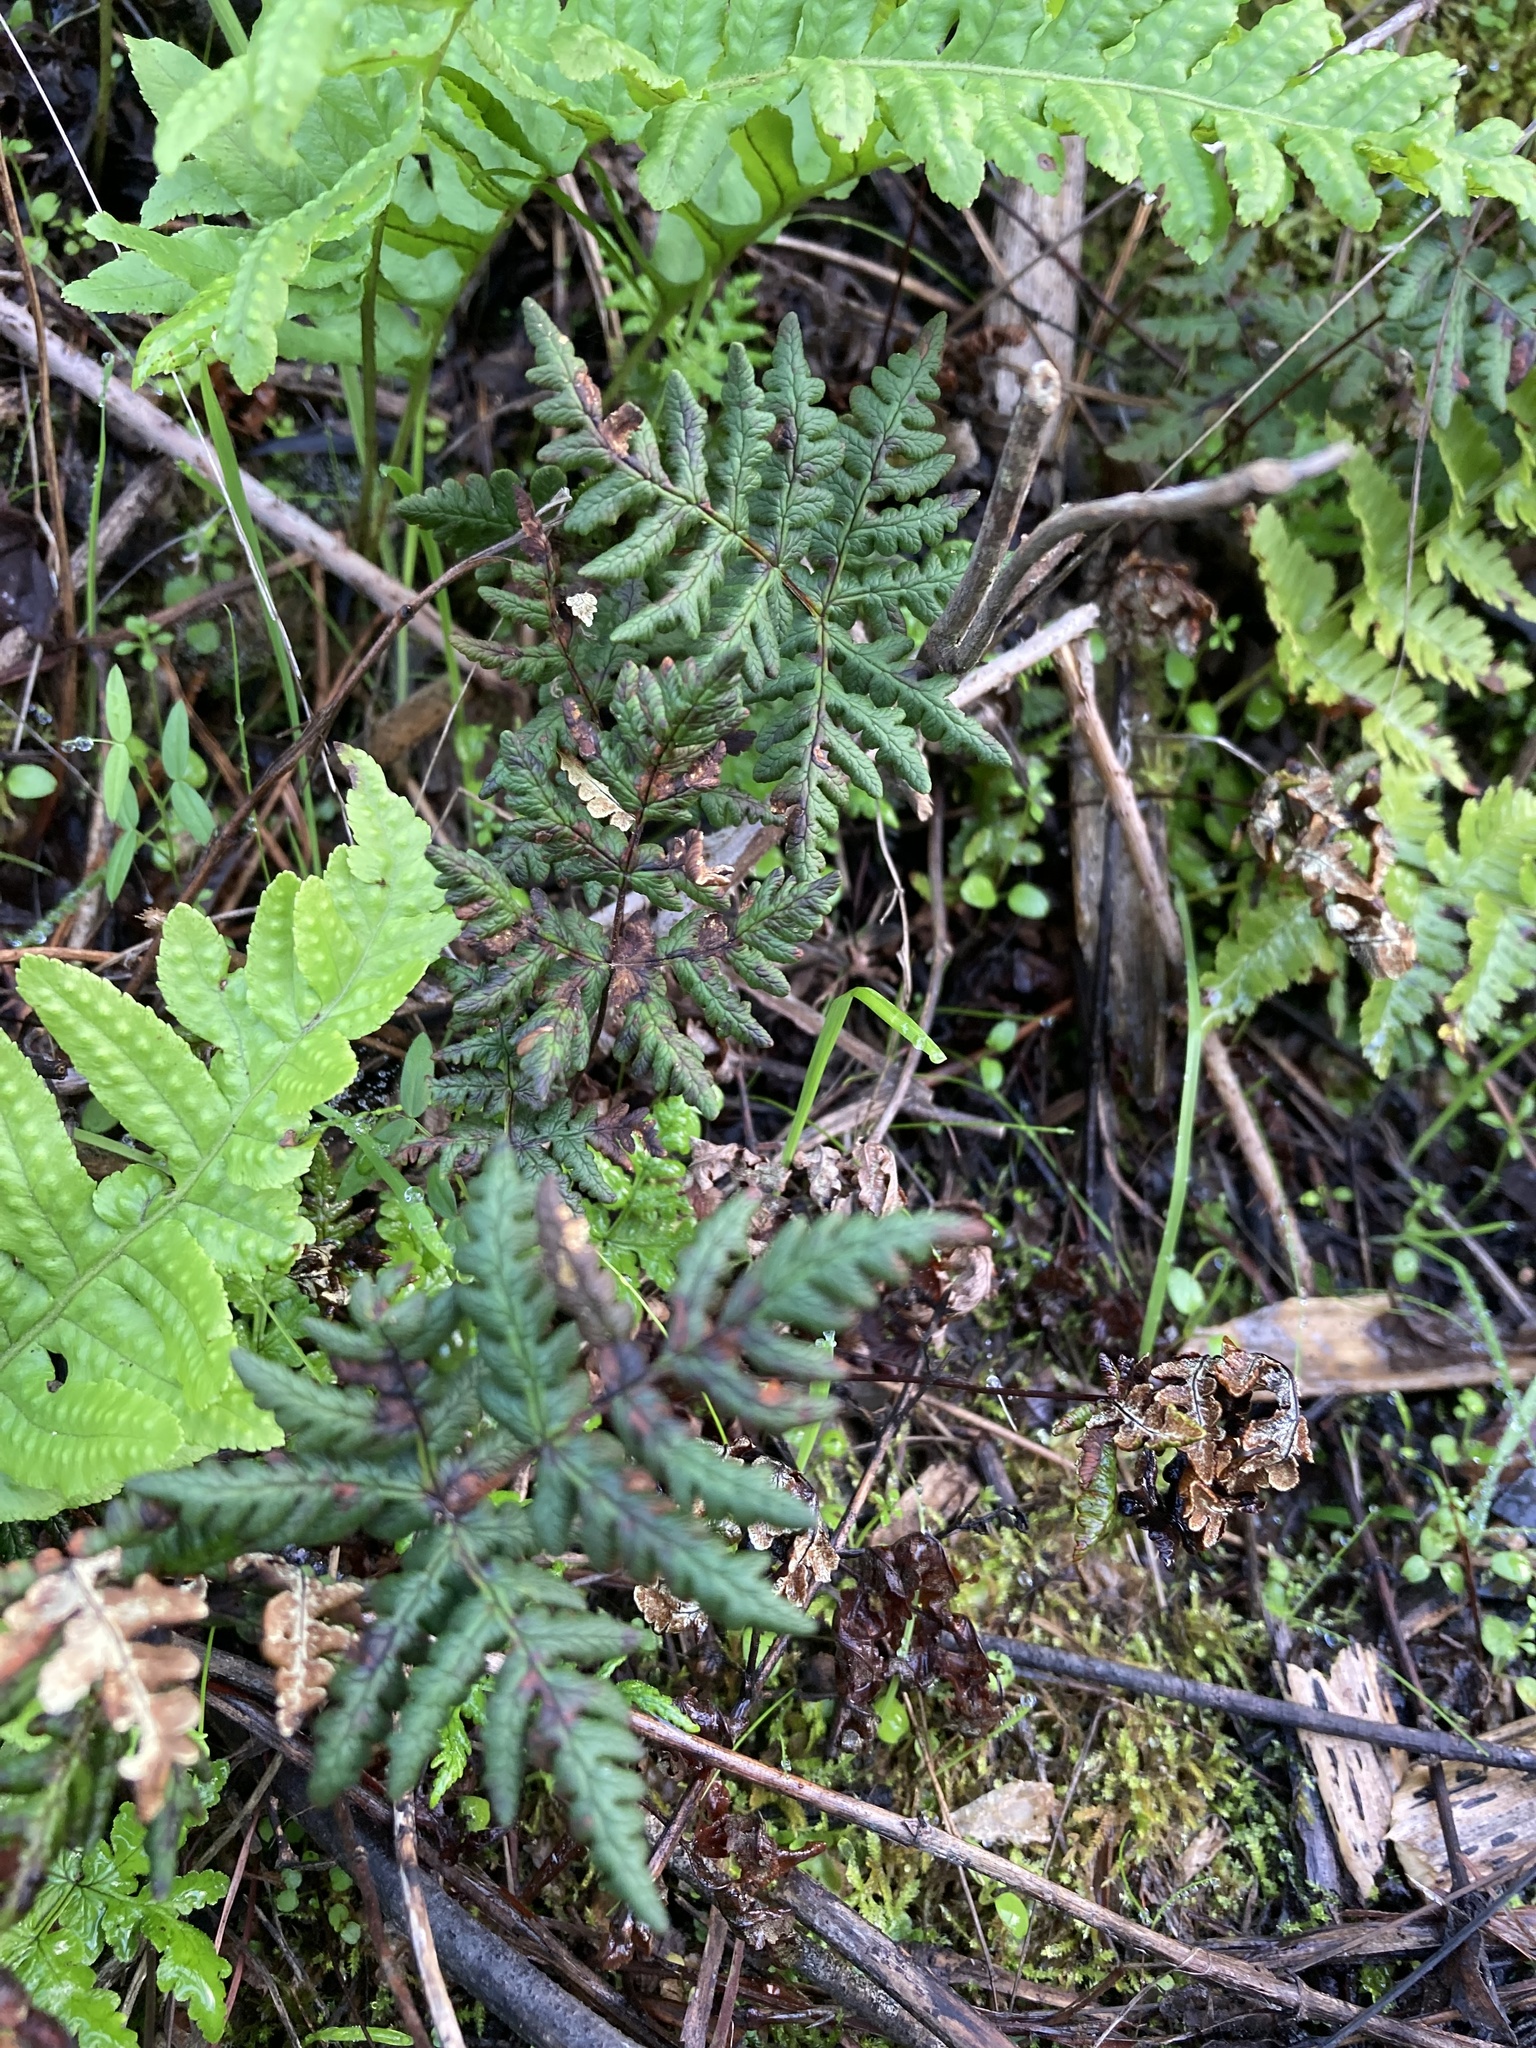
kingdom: Plantae
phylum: Tracheophyta
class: Polypodiopsida
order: Polypodiales
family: Pteridaceae
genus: Pentagramma
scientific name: Pentagramma triangularis
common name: Gold fern
